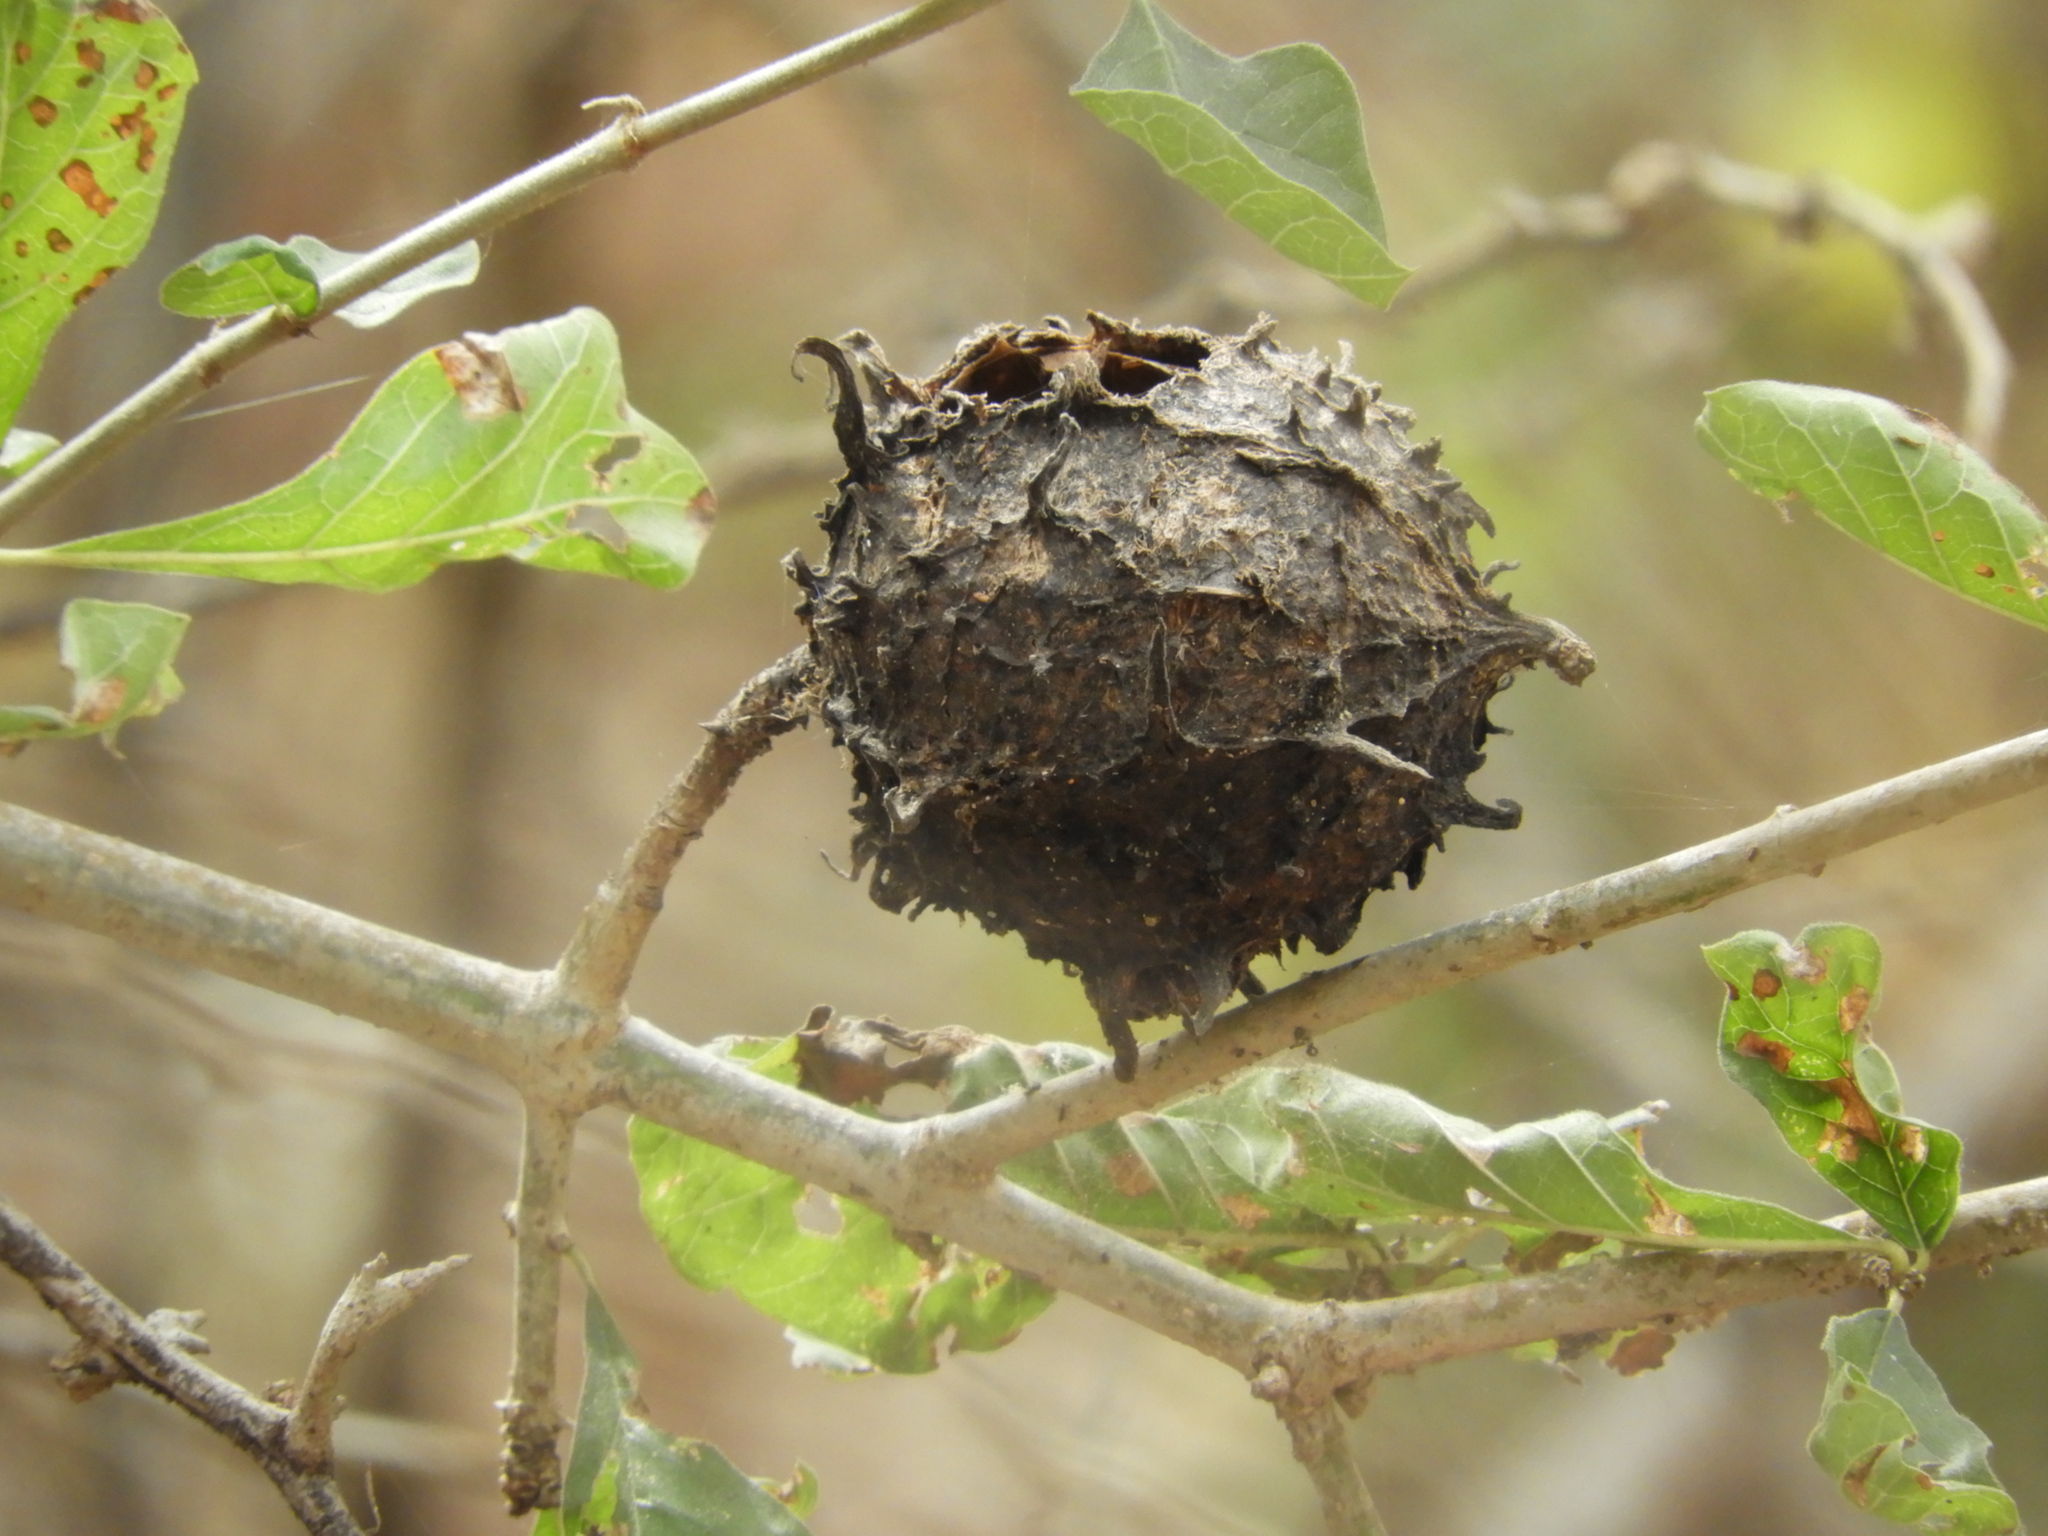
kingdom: Plantae
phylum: Tracheophyta
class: Magnoliopsida
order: Gentianales
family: Rubiaceae
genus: Randia
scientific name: Randia echinocarpa
